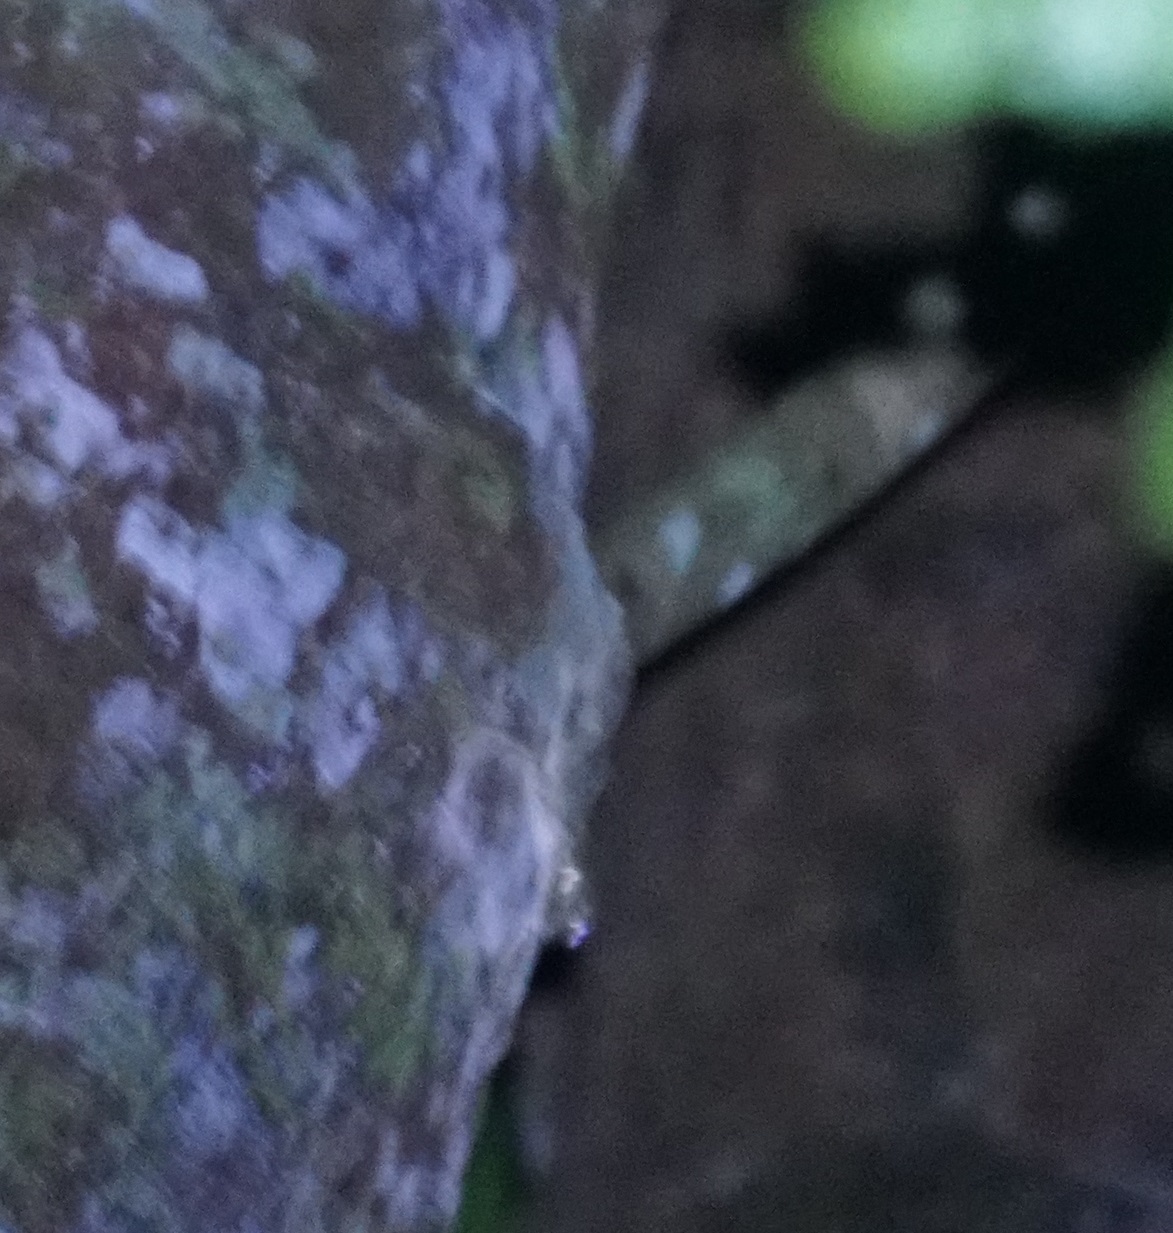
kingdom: Animalia
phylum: Chordata
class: Squamata
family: Carphodactylidae
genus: Saltuarius
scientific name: Saltuarius cornutus
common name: Leaf-tailed gecko
